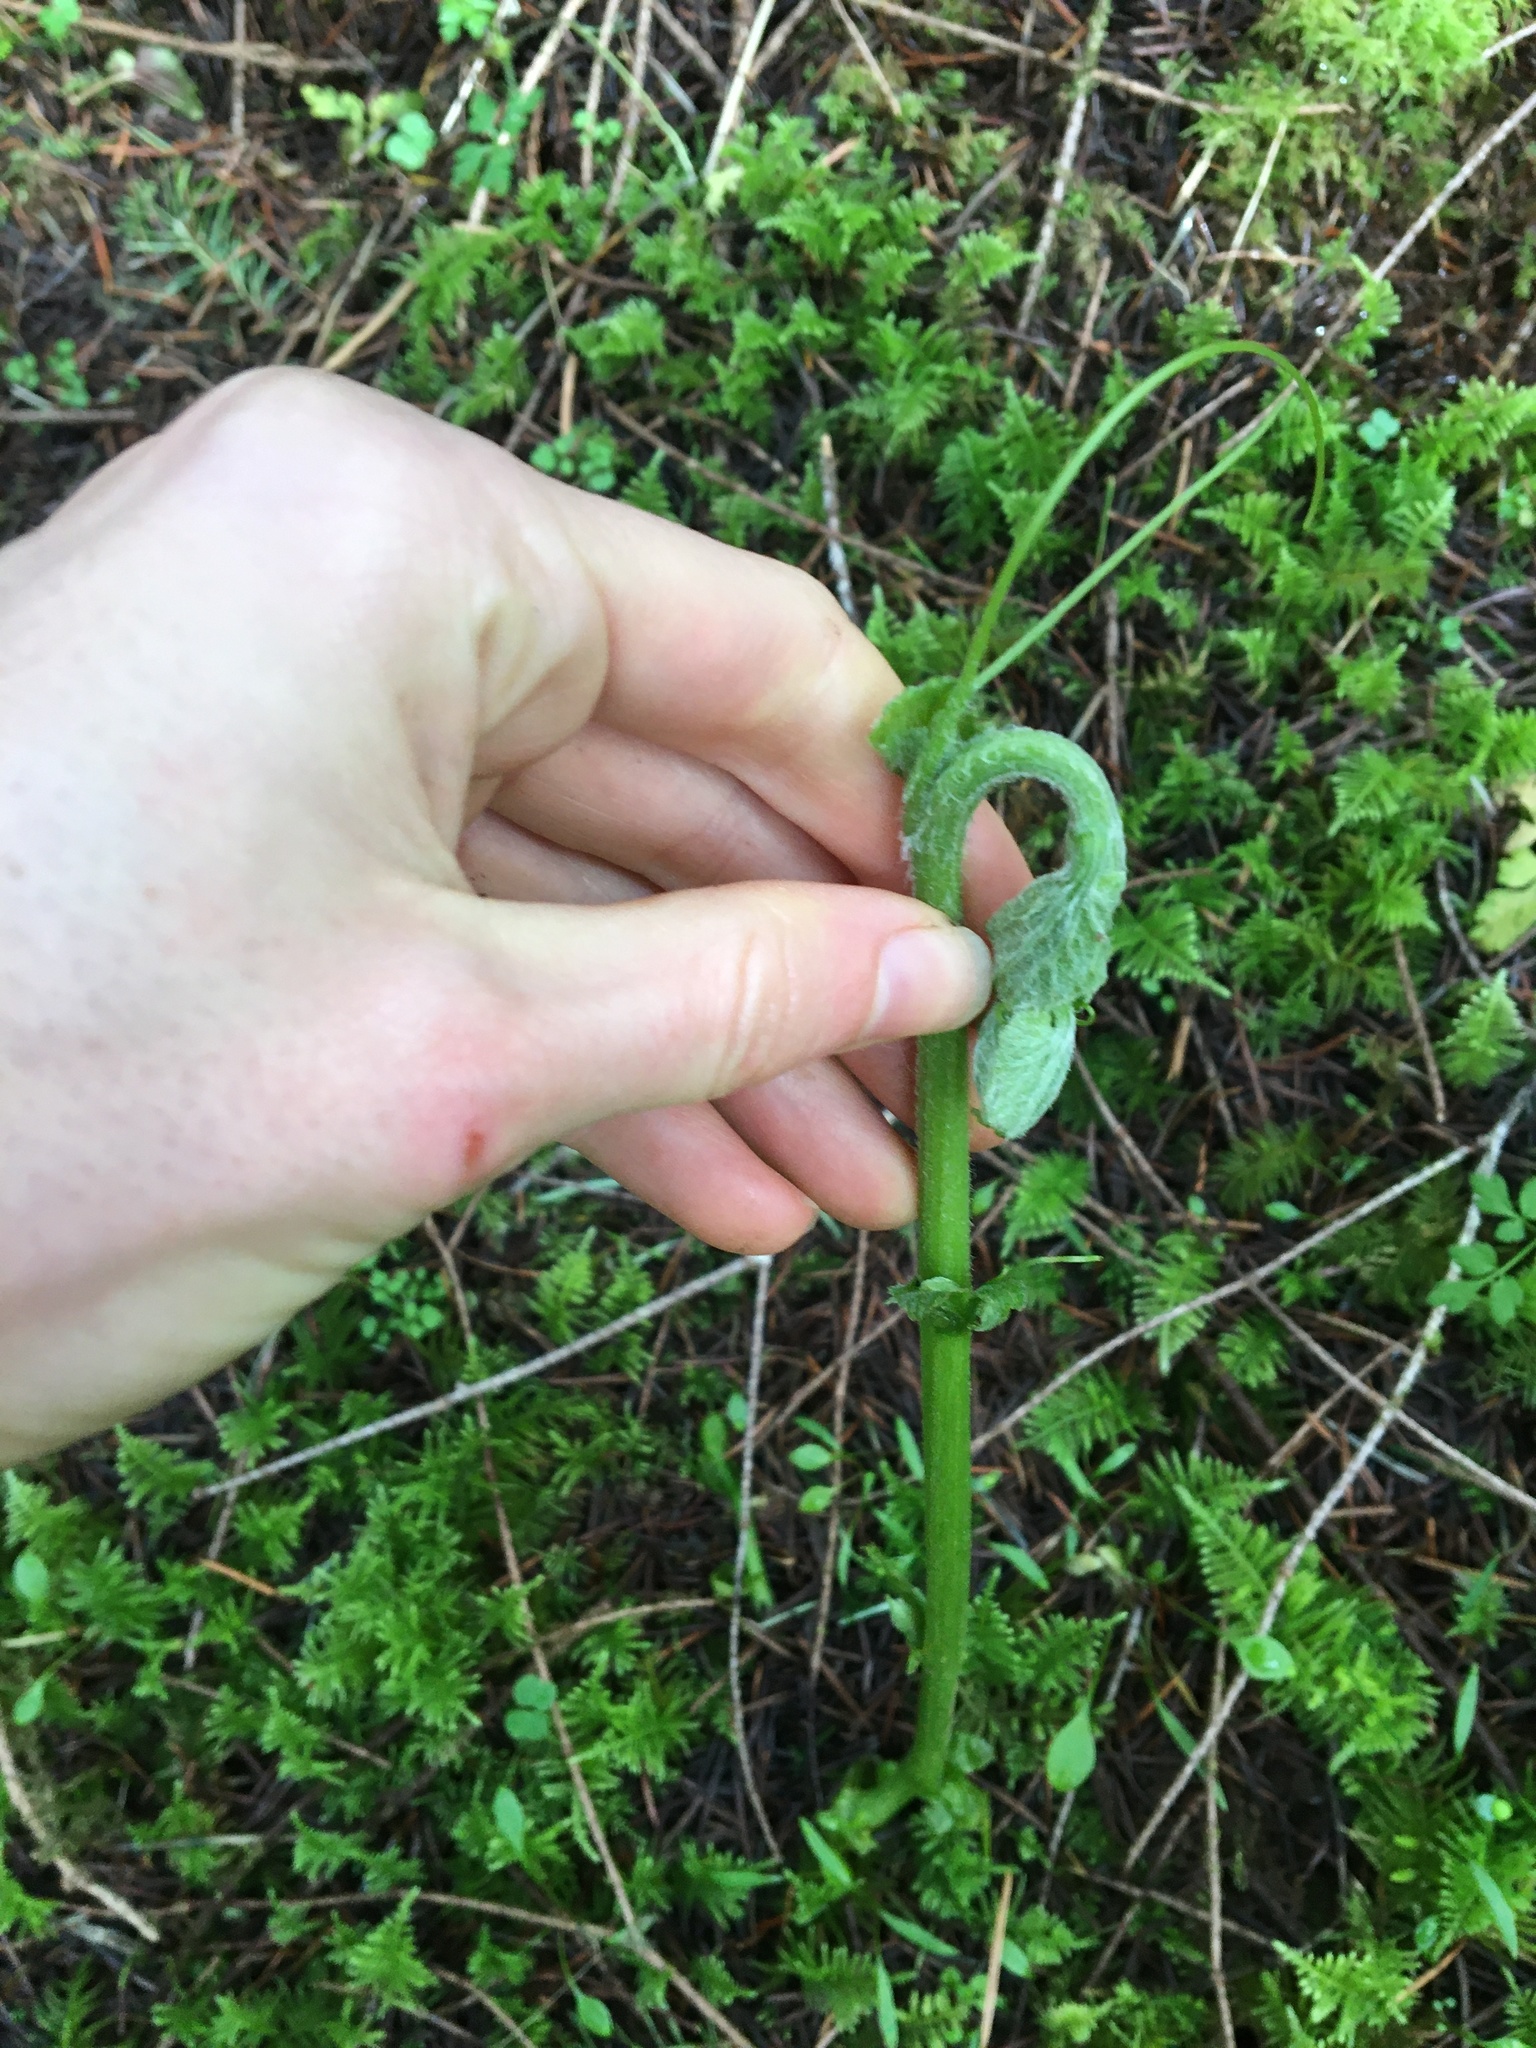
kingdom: Plantae
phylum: Tracheophyta
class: Magnoliopsida
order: Cucurbitales
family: Cucurbitaceae
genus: Marah
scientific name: Marah oregana
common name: Coastal manroot
